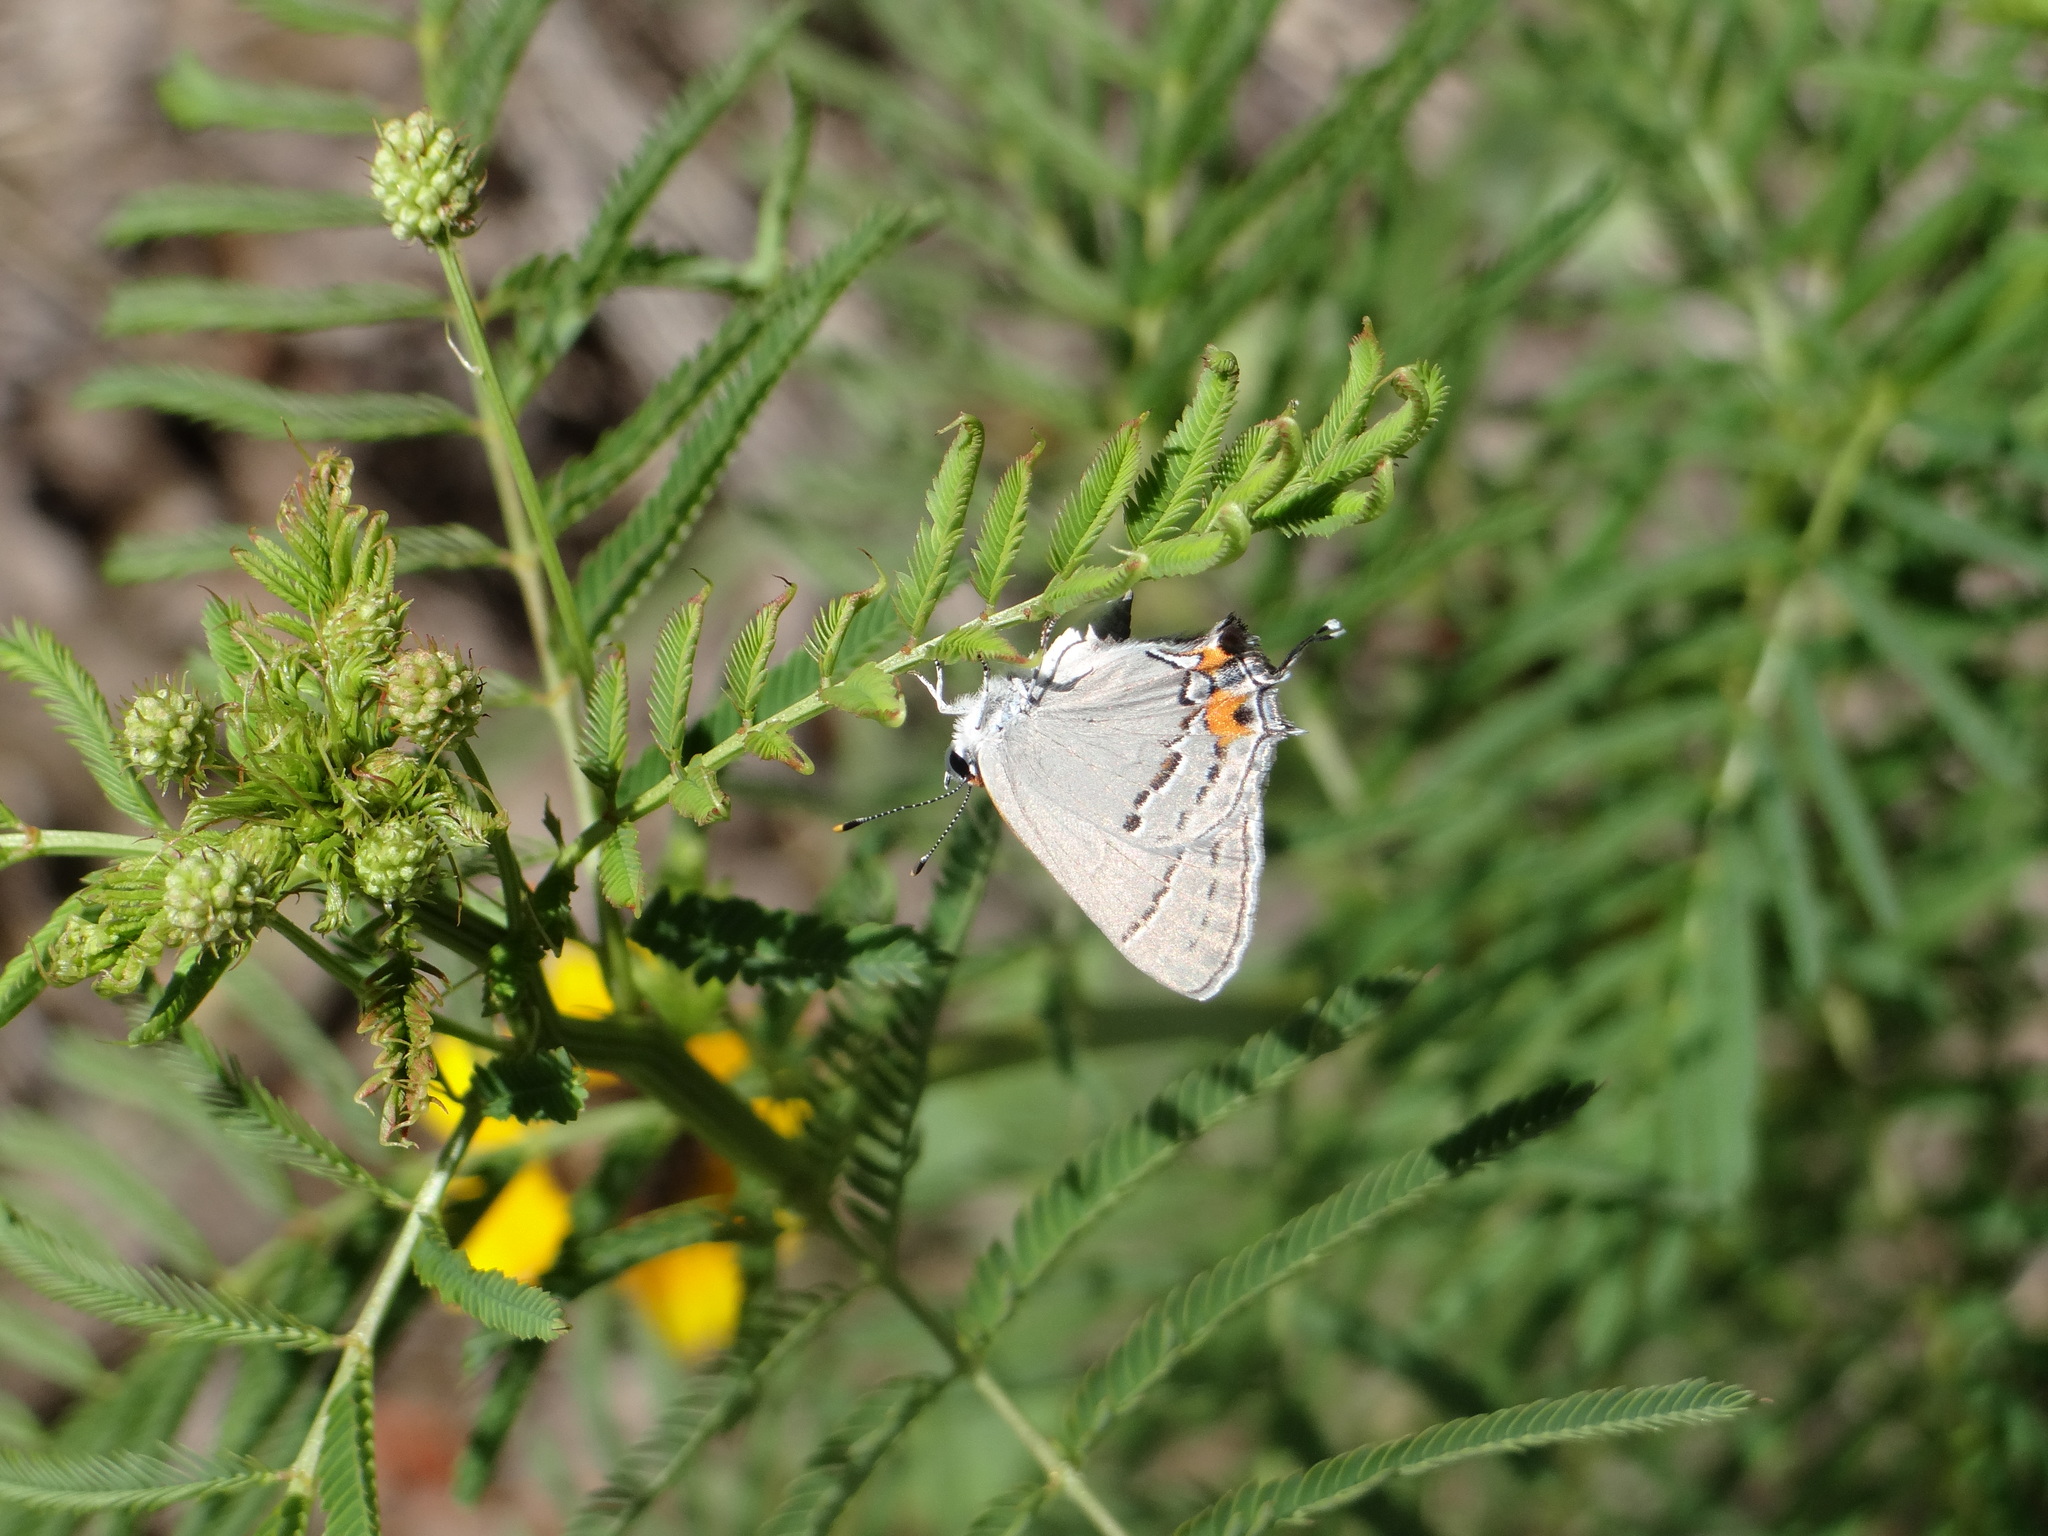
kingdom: Animalia
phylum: Arthropoda
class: Insecta
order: Lepidoptera
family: Lycaenidae
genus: Strymon
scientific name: Strymon melinus
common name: Gray hairstreak
